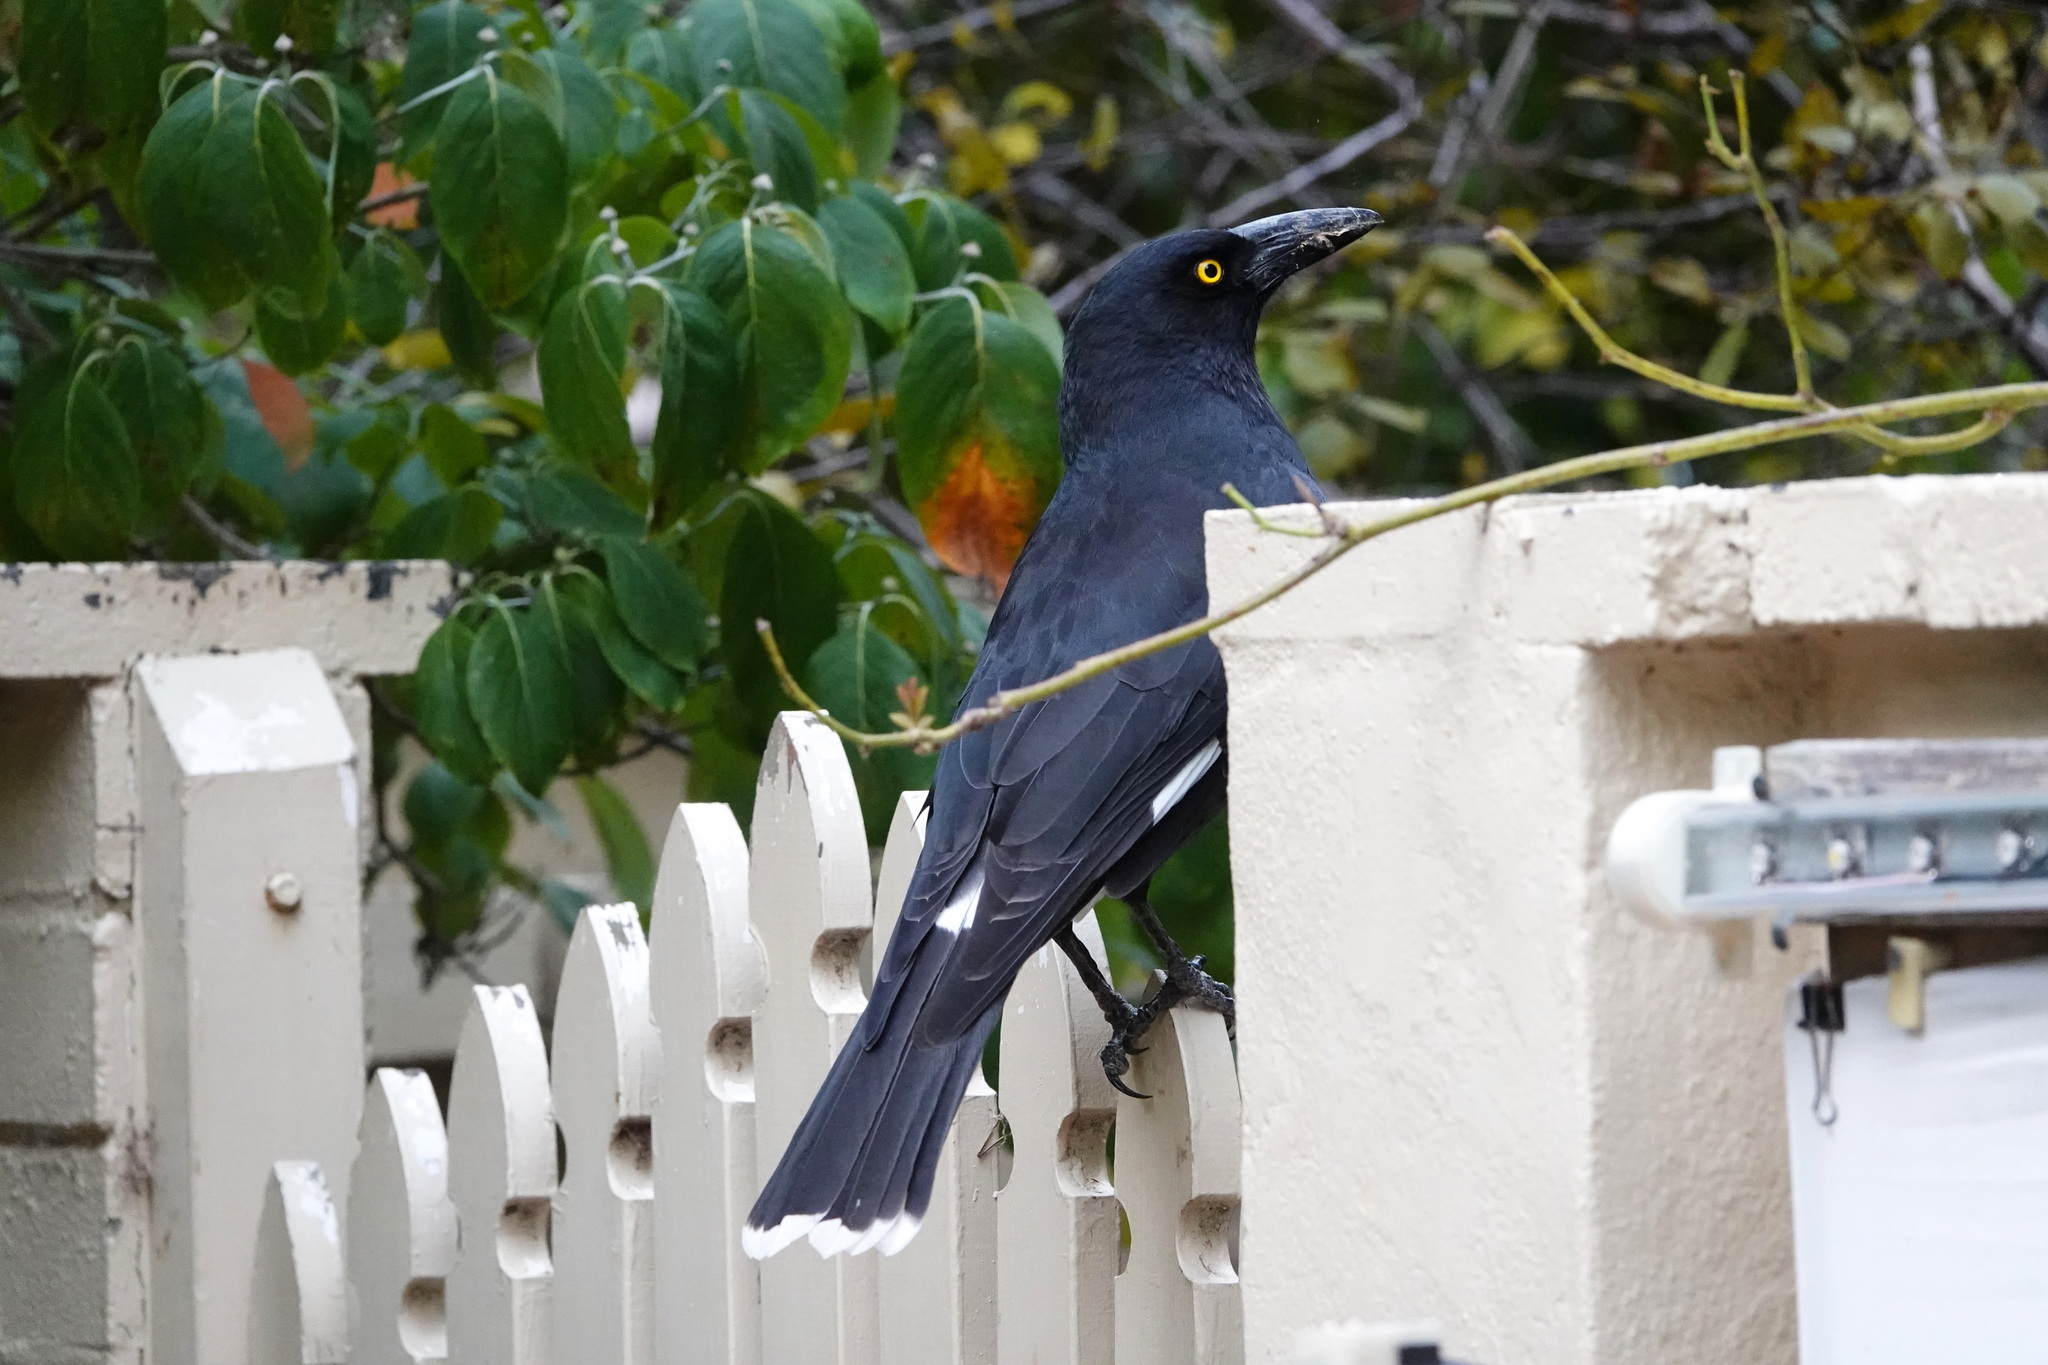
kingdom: Animalia
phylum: Chordata
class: Aves
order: Passeriformes
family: Cracticidae
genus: Strepera
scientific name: Strepera graculina
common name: Pied currawong
